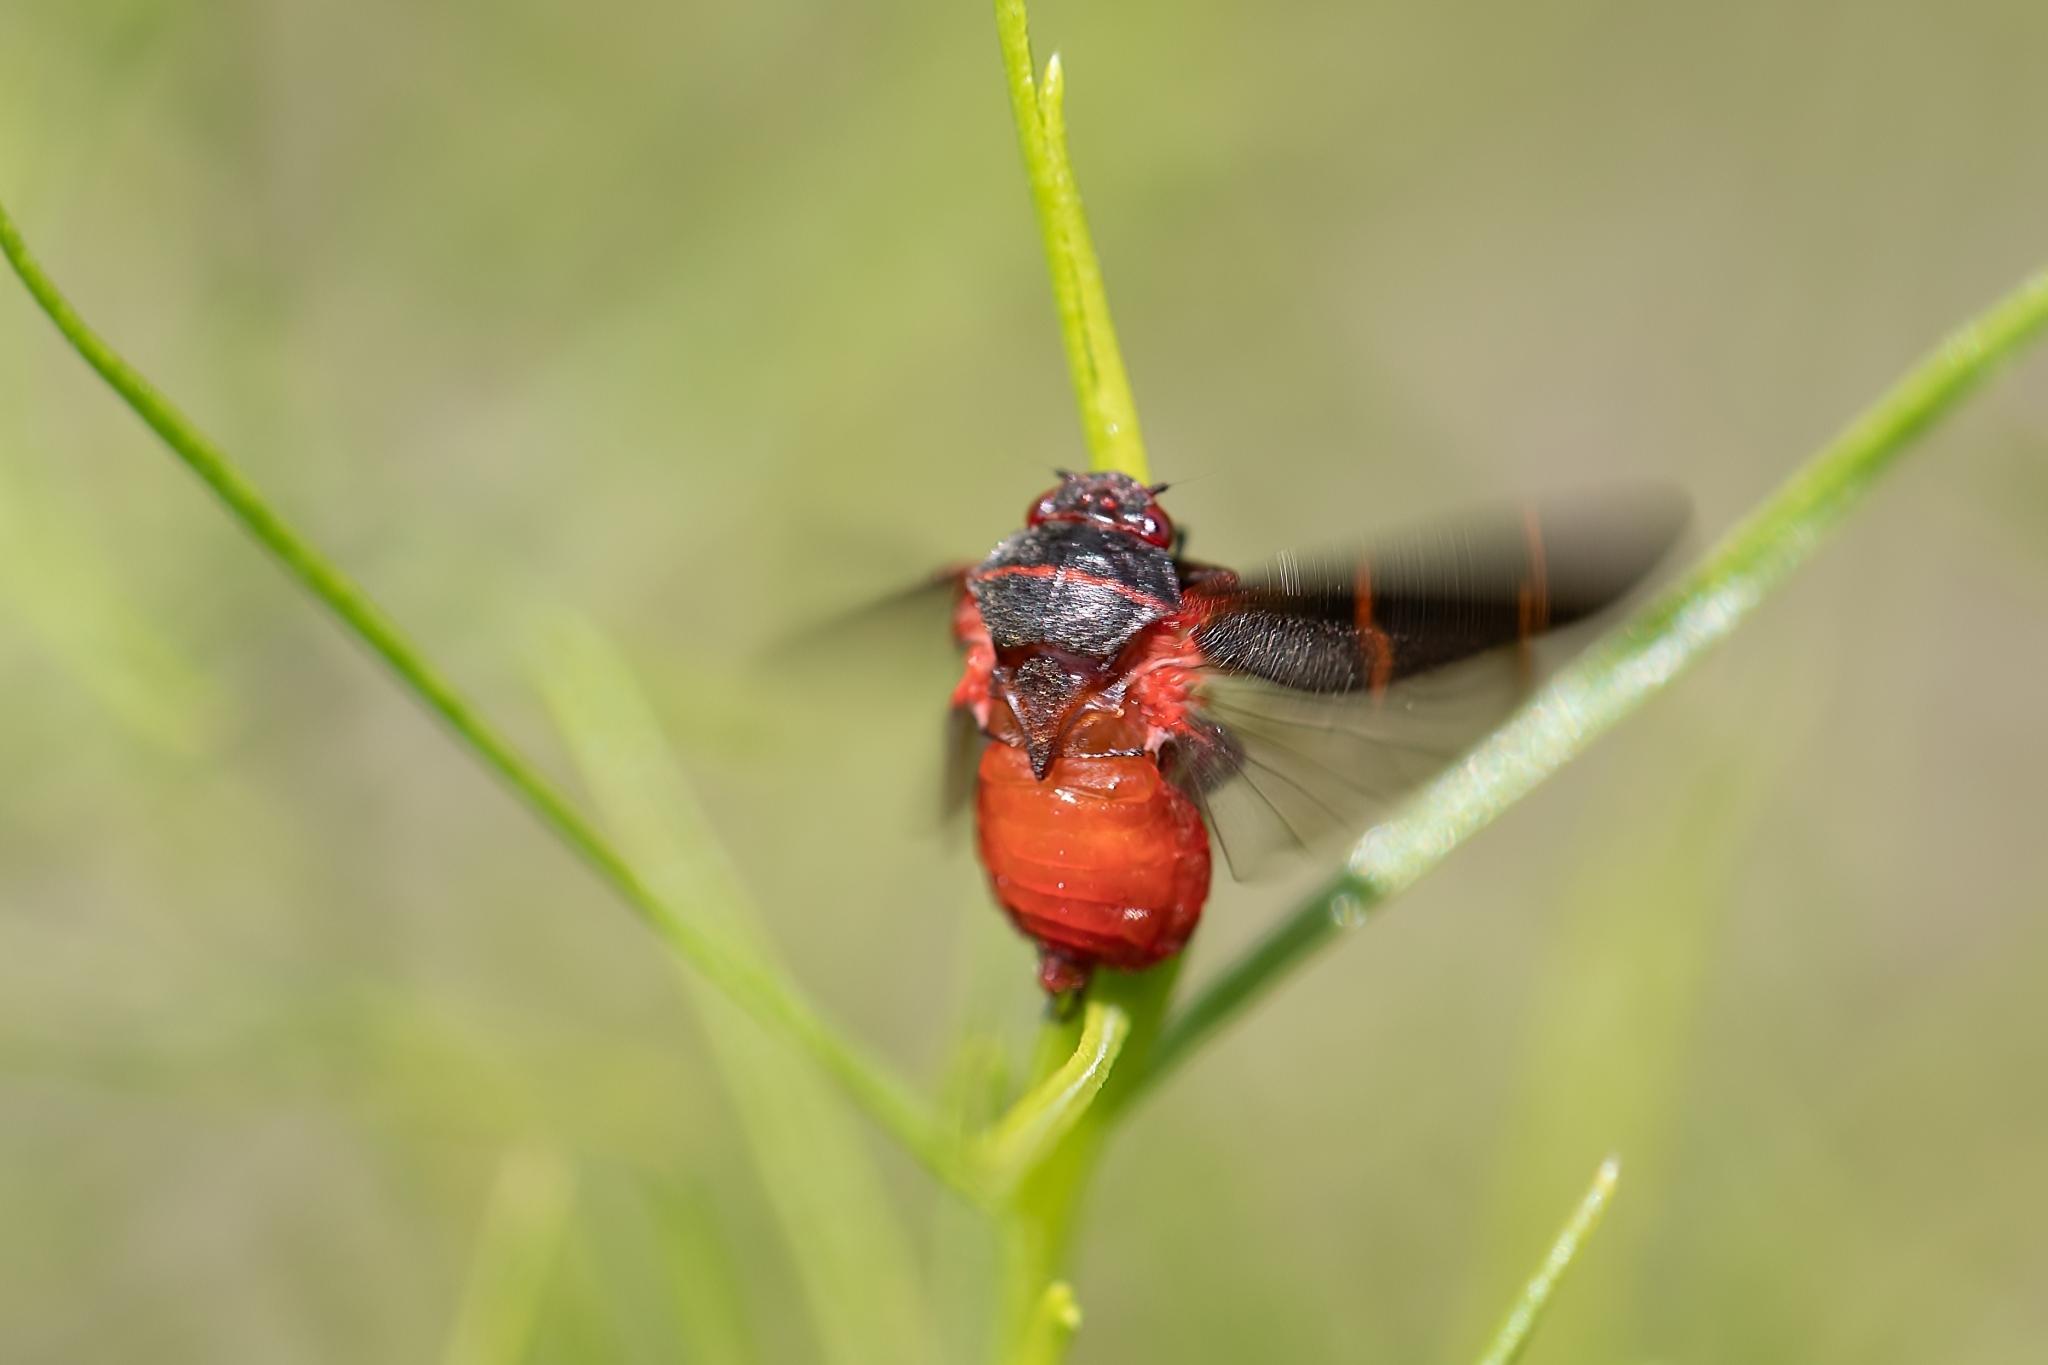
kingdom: Animalia
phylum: Arthropoda
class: Insecta
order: Hemiptera
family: Cercopidae
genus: Prosapia
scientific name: Prosapia bicincta
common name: Twolined spittlebug
